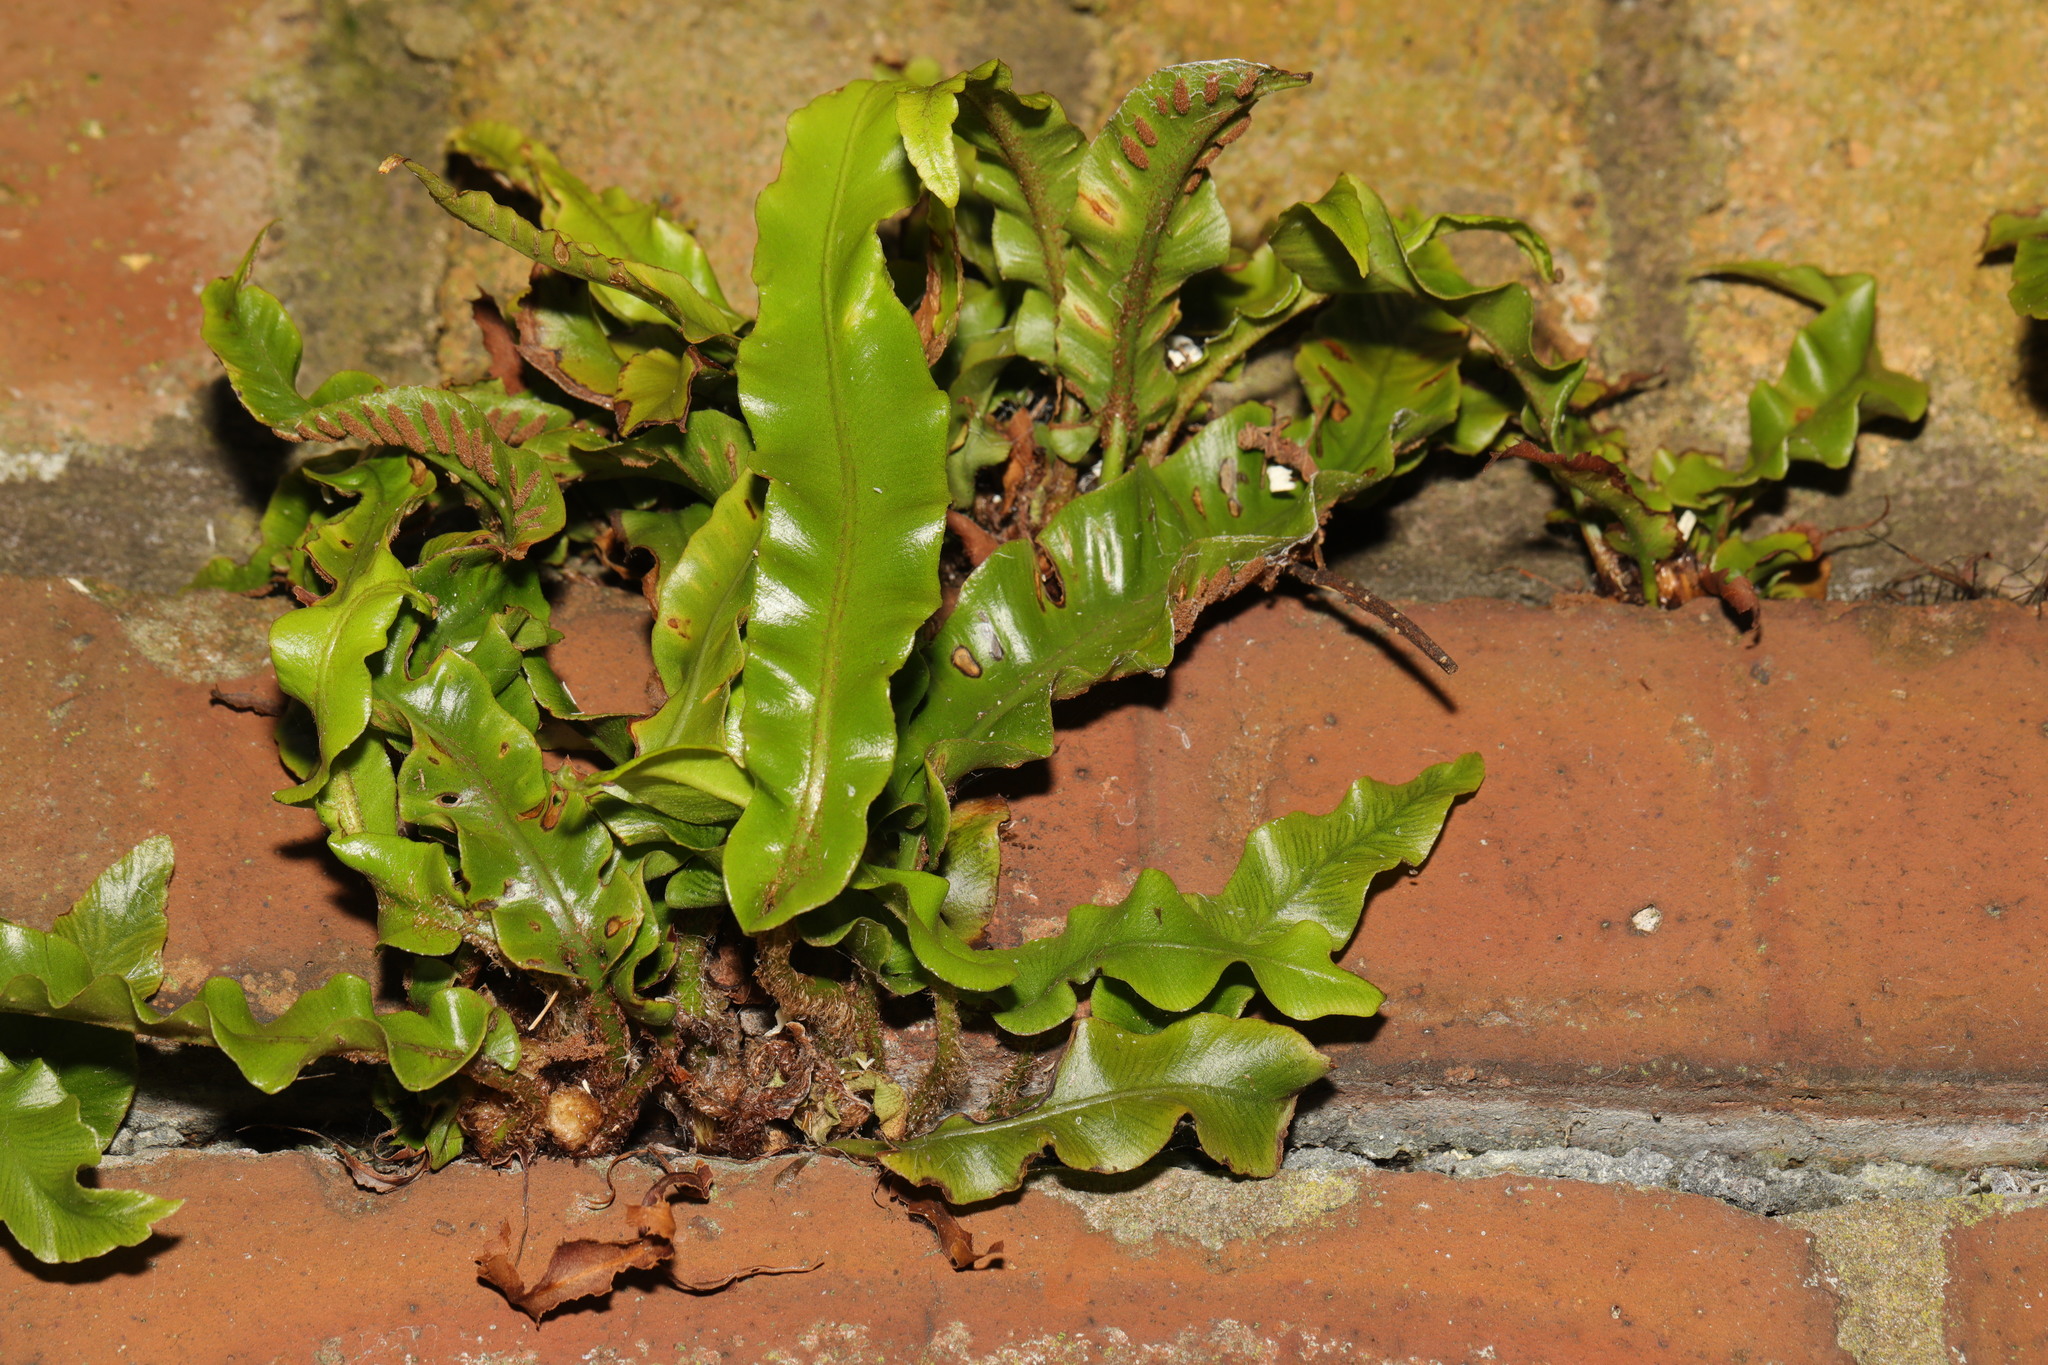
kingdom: Plantae
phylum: Tracheophyta
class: Polypodiopsida
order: Polypodiales
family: Aspleniaceae
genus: Asplenium
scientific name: Asplenium scolopendrium
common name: Hart's-tongue fern
